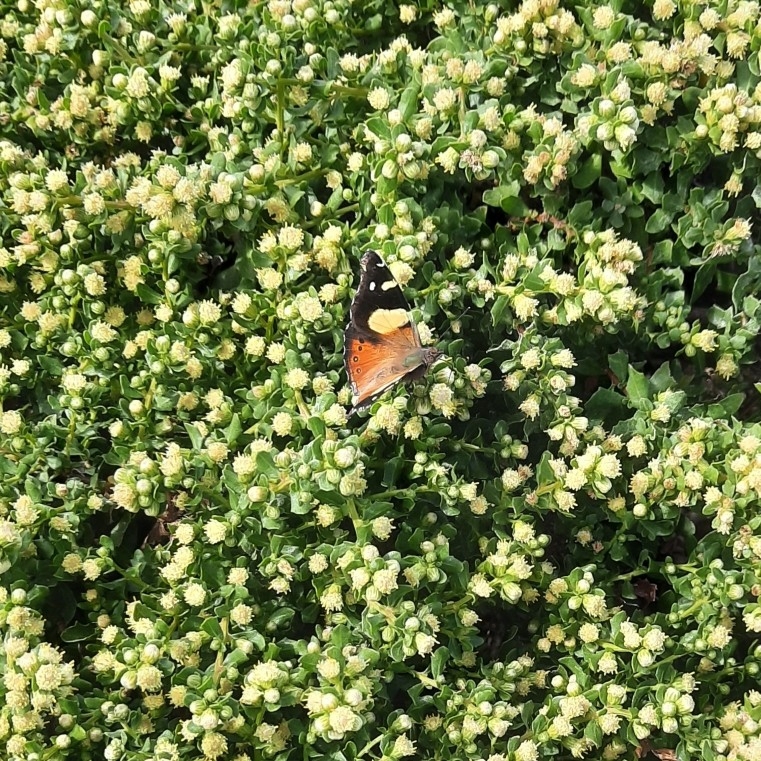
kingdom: Animalia
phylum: Arthropoda
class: Insecta
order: Lepidoptera
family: Nymphalidae
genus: Vanessa
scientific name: Vanessa itea
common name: Yellow admiral
